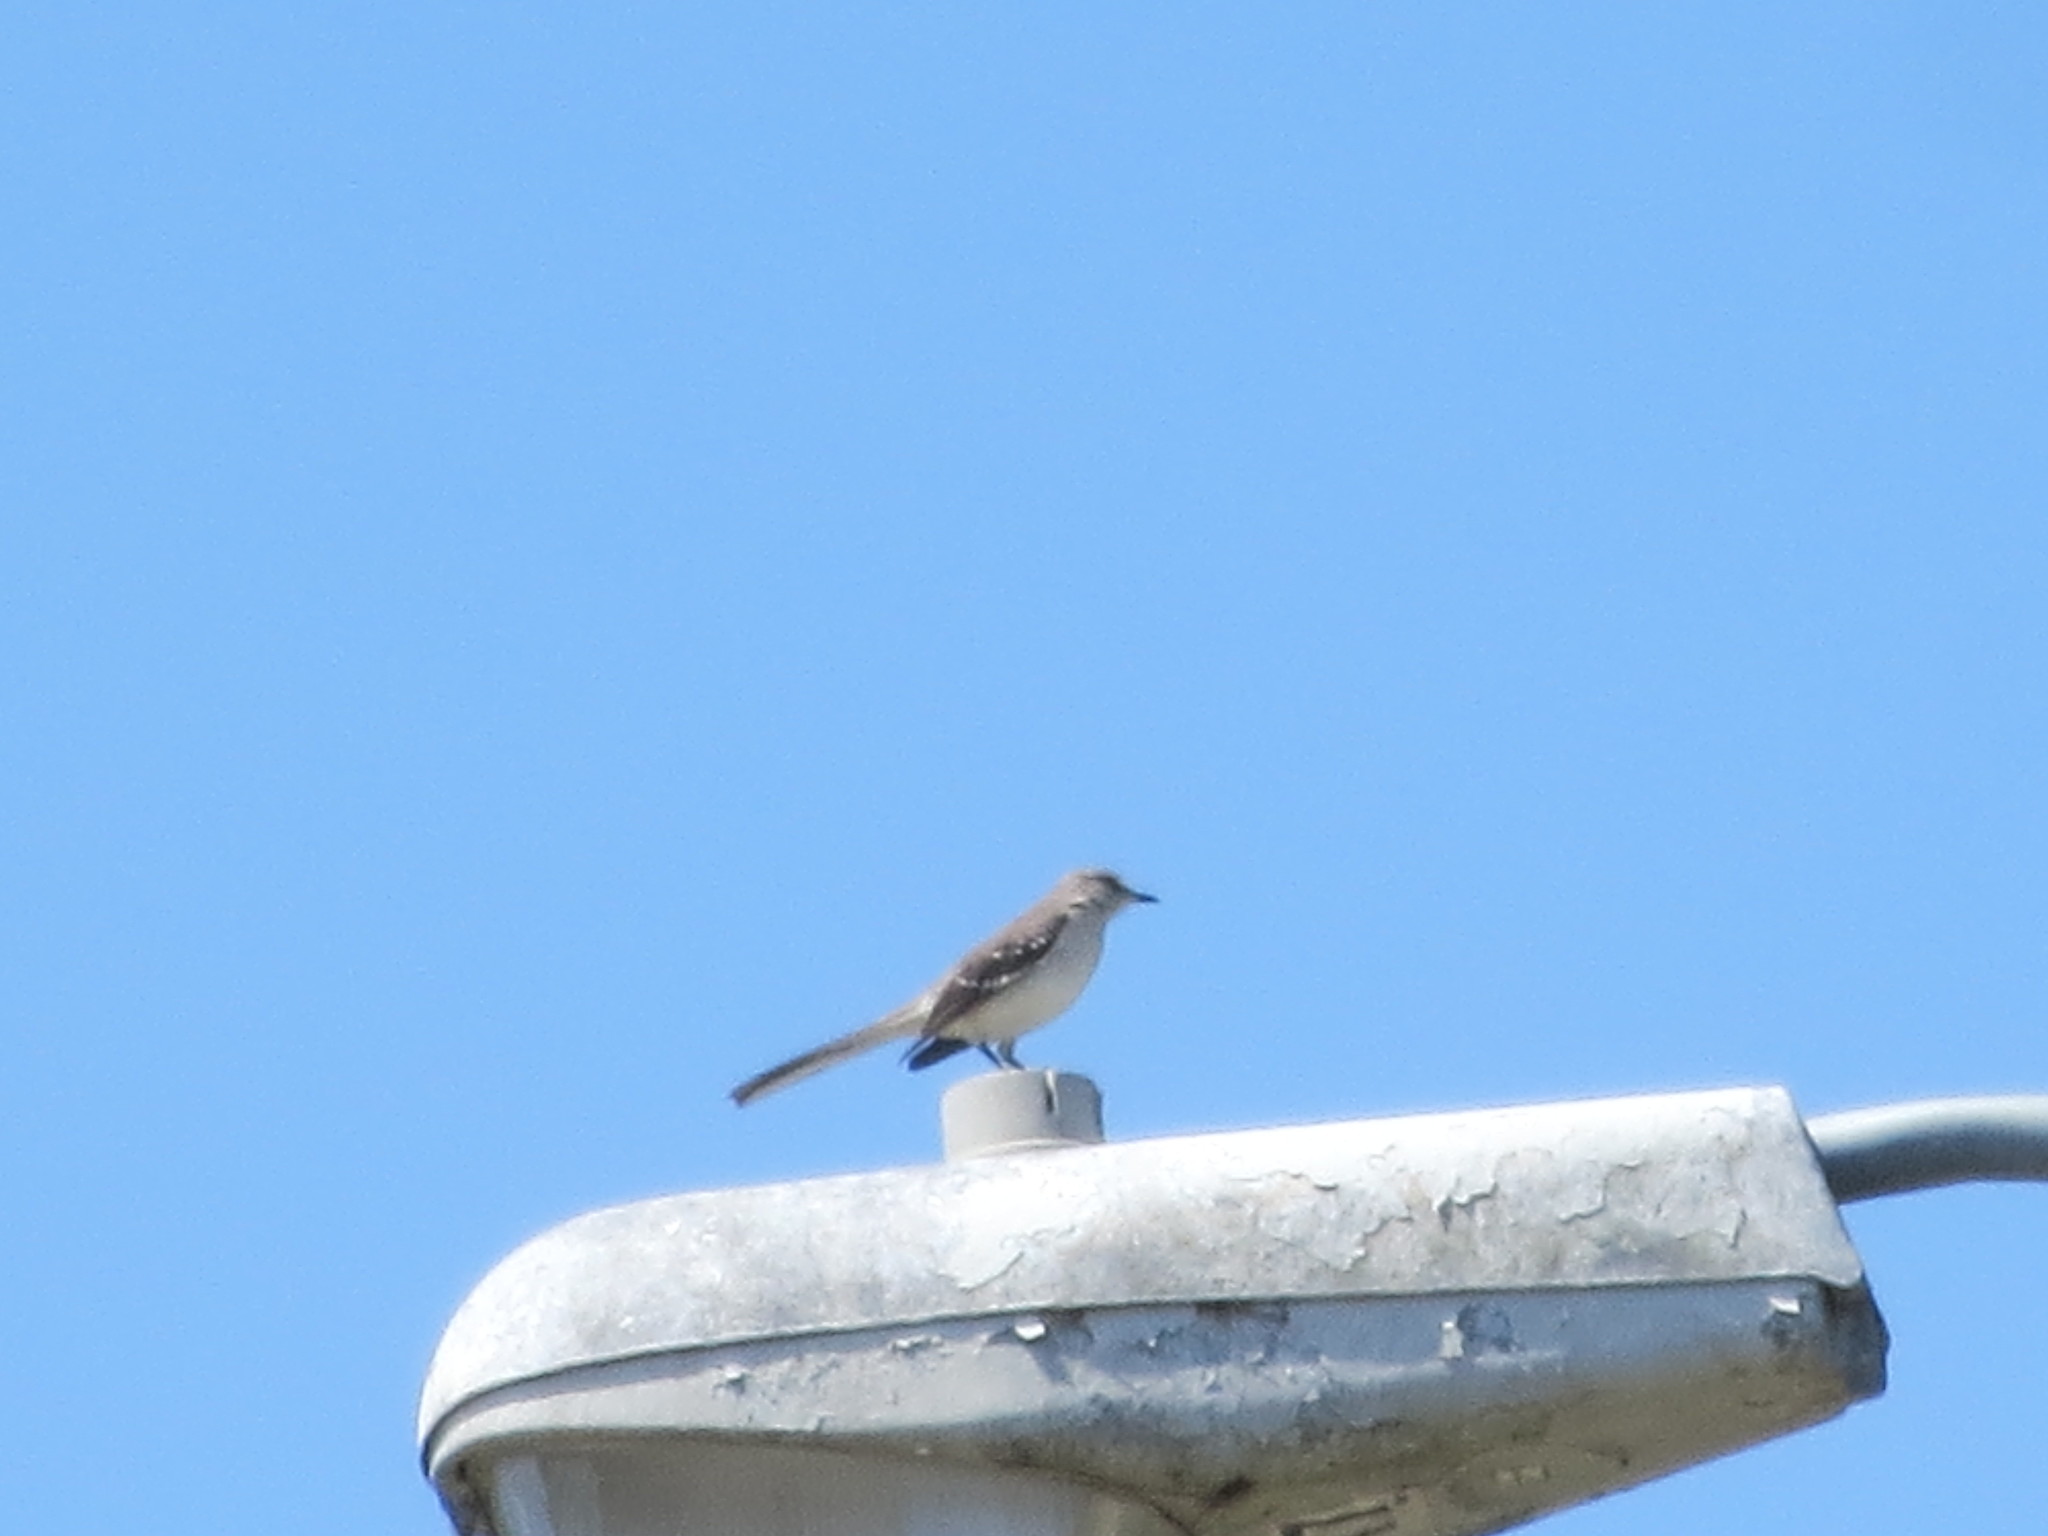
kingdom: Animalia
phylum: Chordata
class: Aves
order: Passeriformes
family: Mimidae
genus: Mimus
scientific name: Mimus polyglottos
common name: Northern mockingbird
